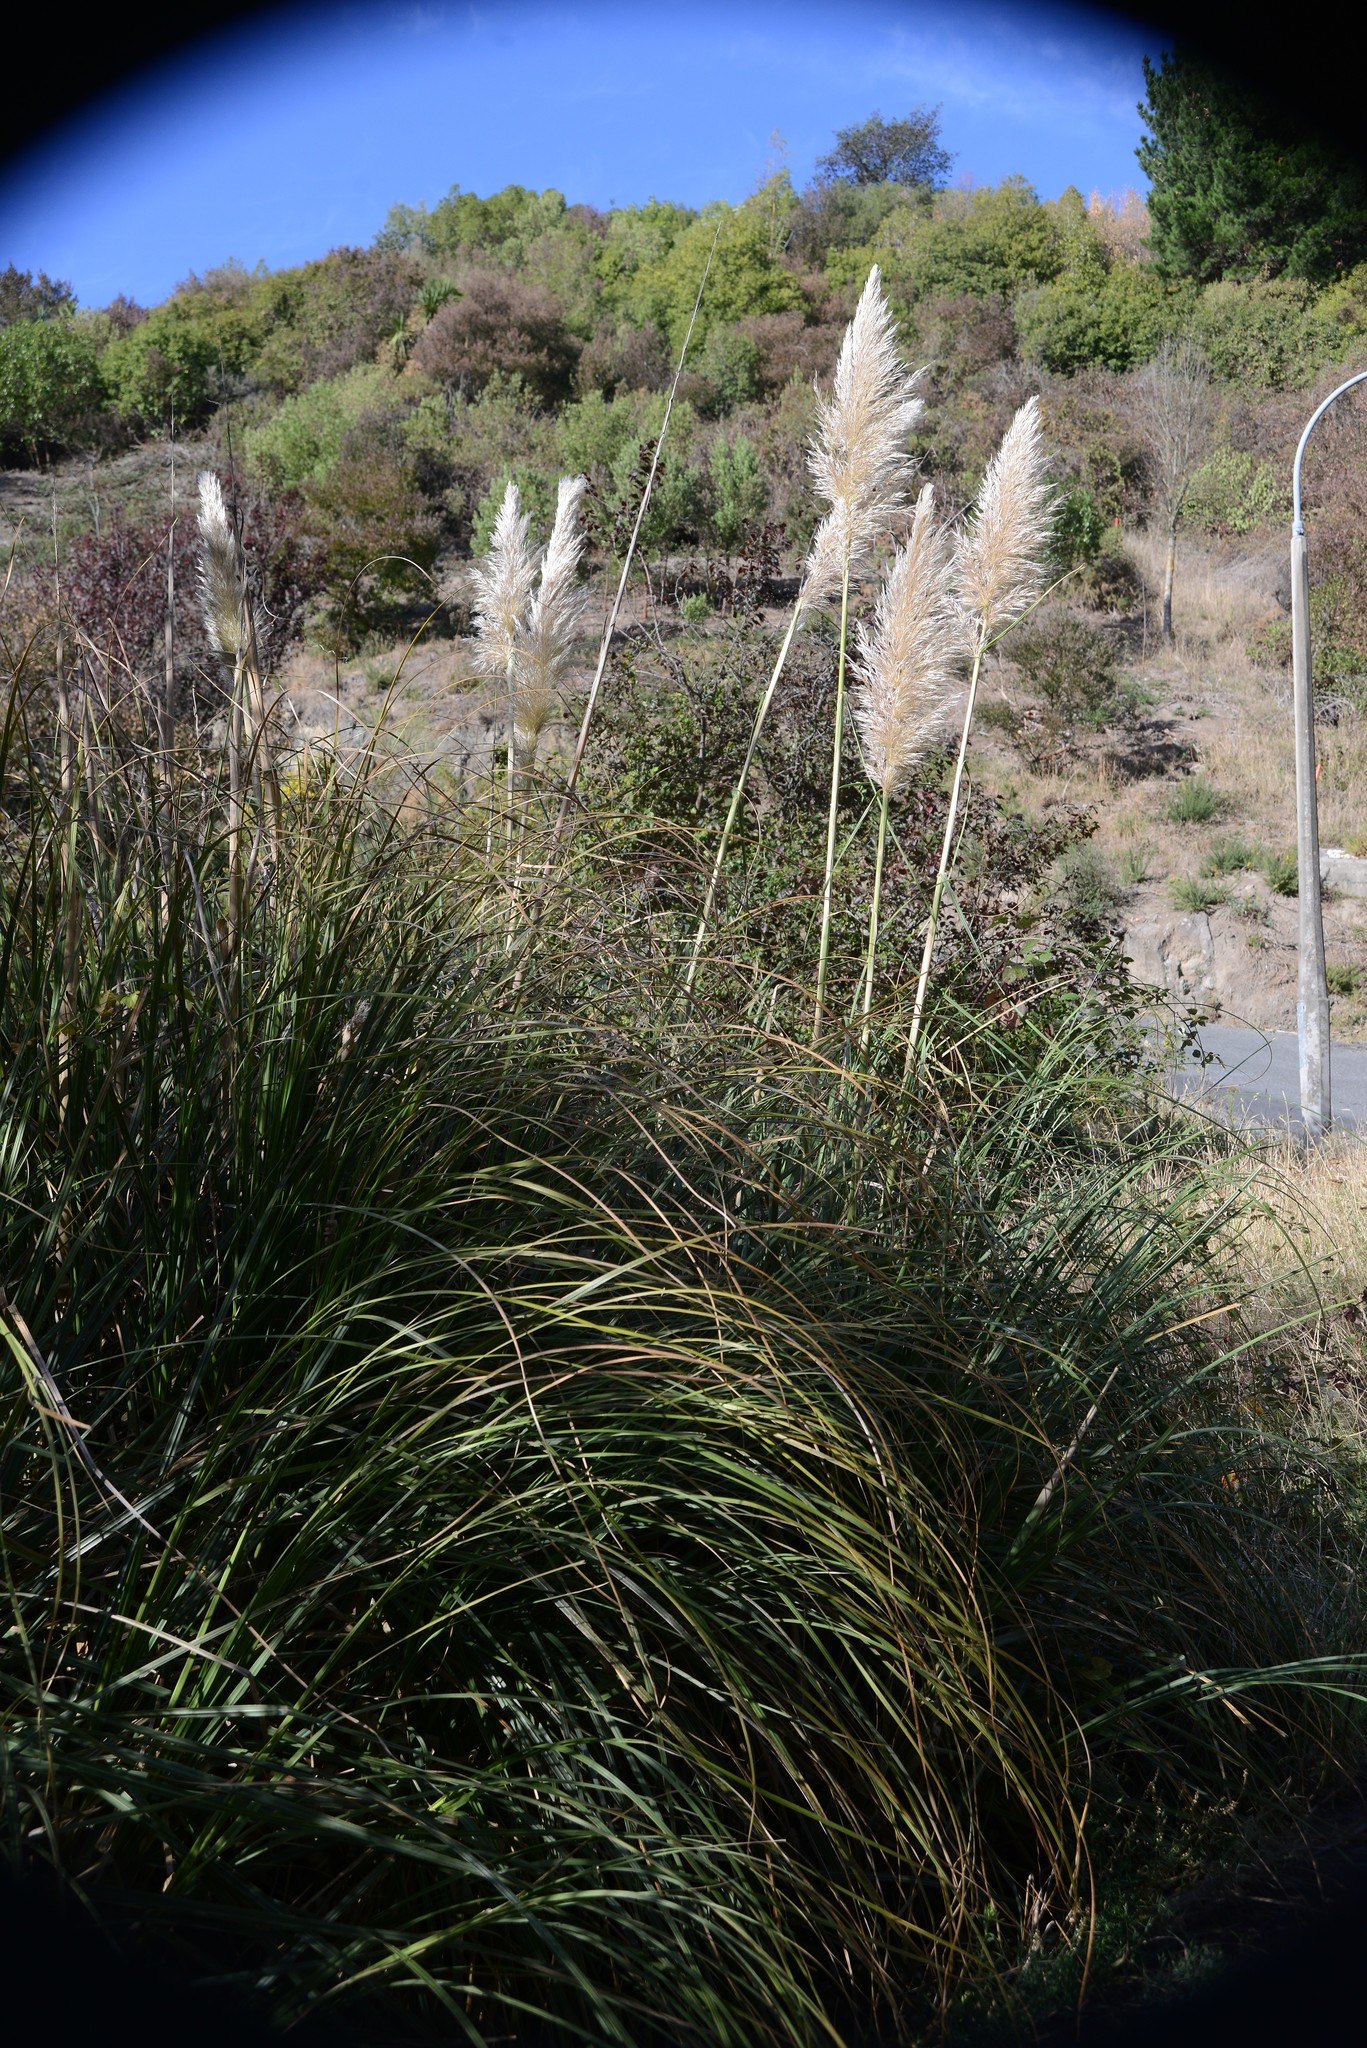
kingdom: Plantae
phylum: Tracheophyta
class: Liliopsida
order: Poales
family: Poaceae
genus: Cortaderia
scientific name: Cortaderia selloana
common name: Uruguayan pampas grass
